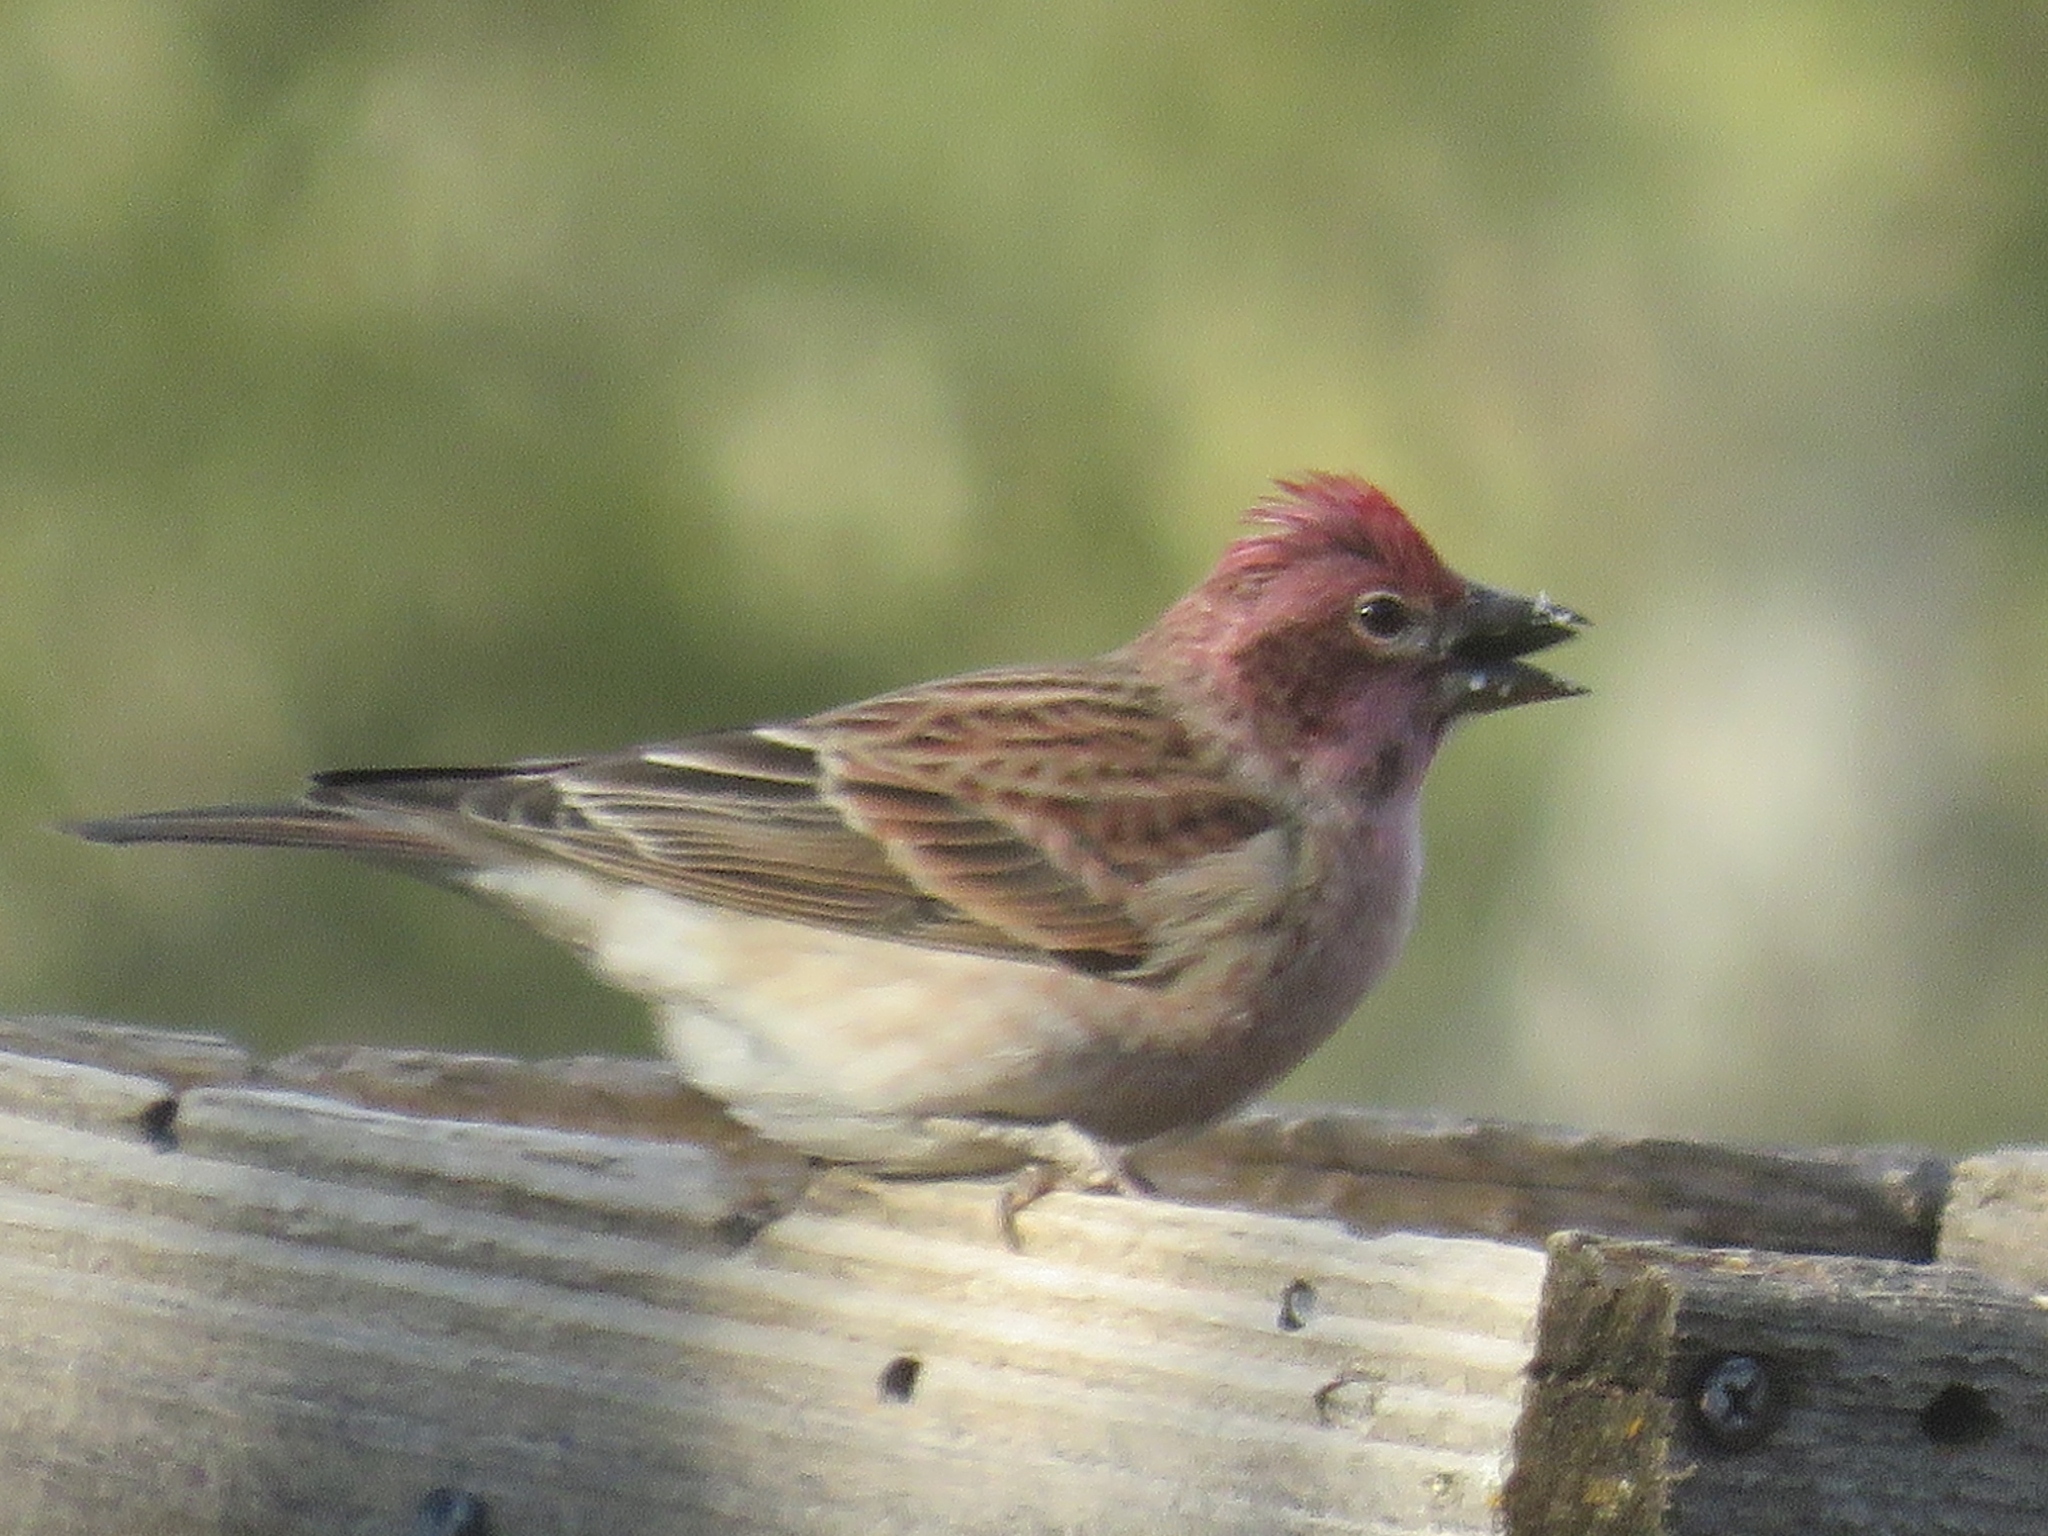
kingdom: Animalia
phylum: Chordata
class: Aves
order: Passeriformes
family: Fringillidae
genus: Haemorhous
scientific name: Haemorhous cassinii
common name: Cassin's finch
